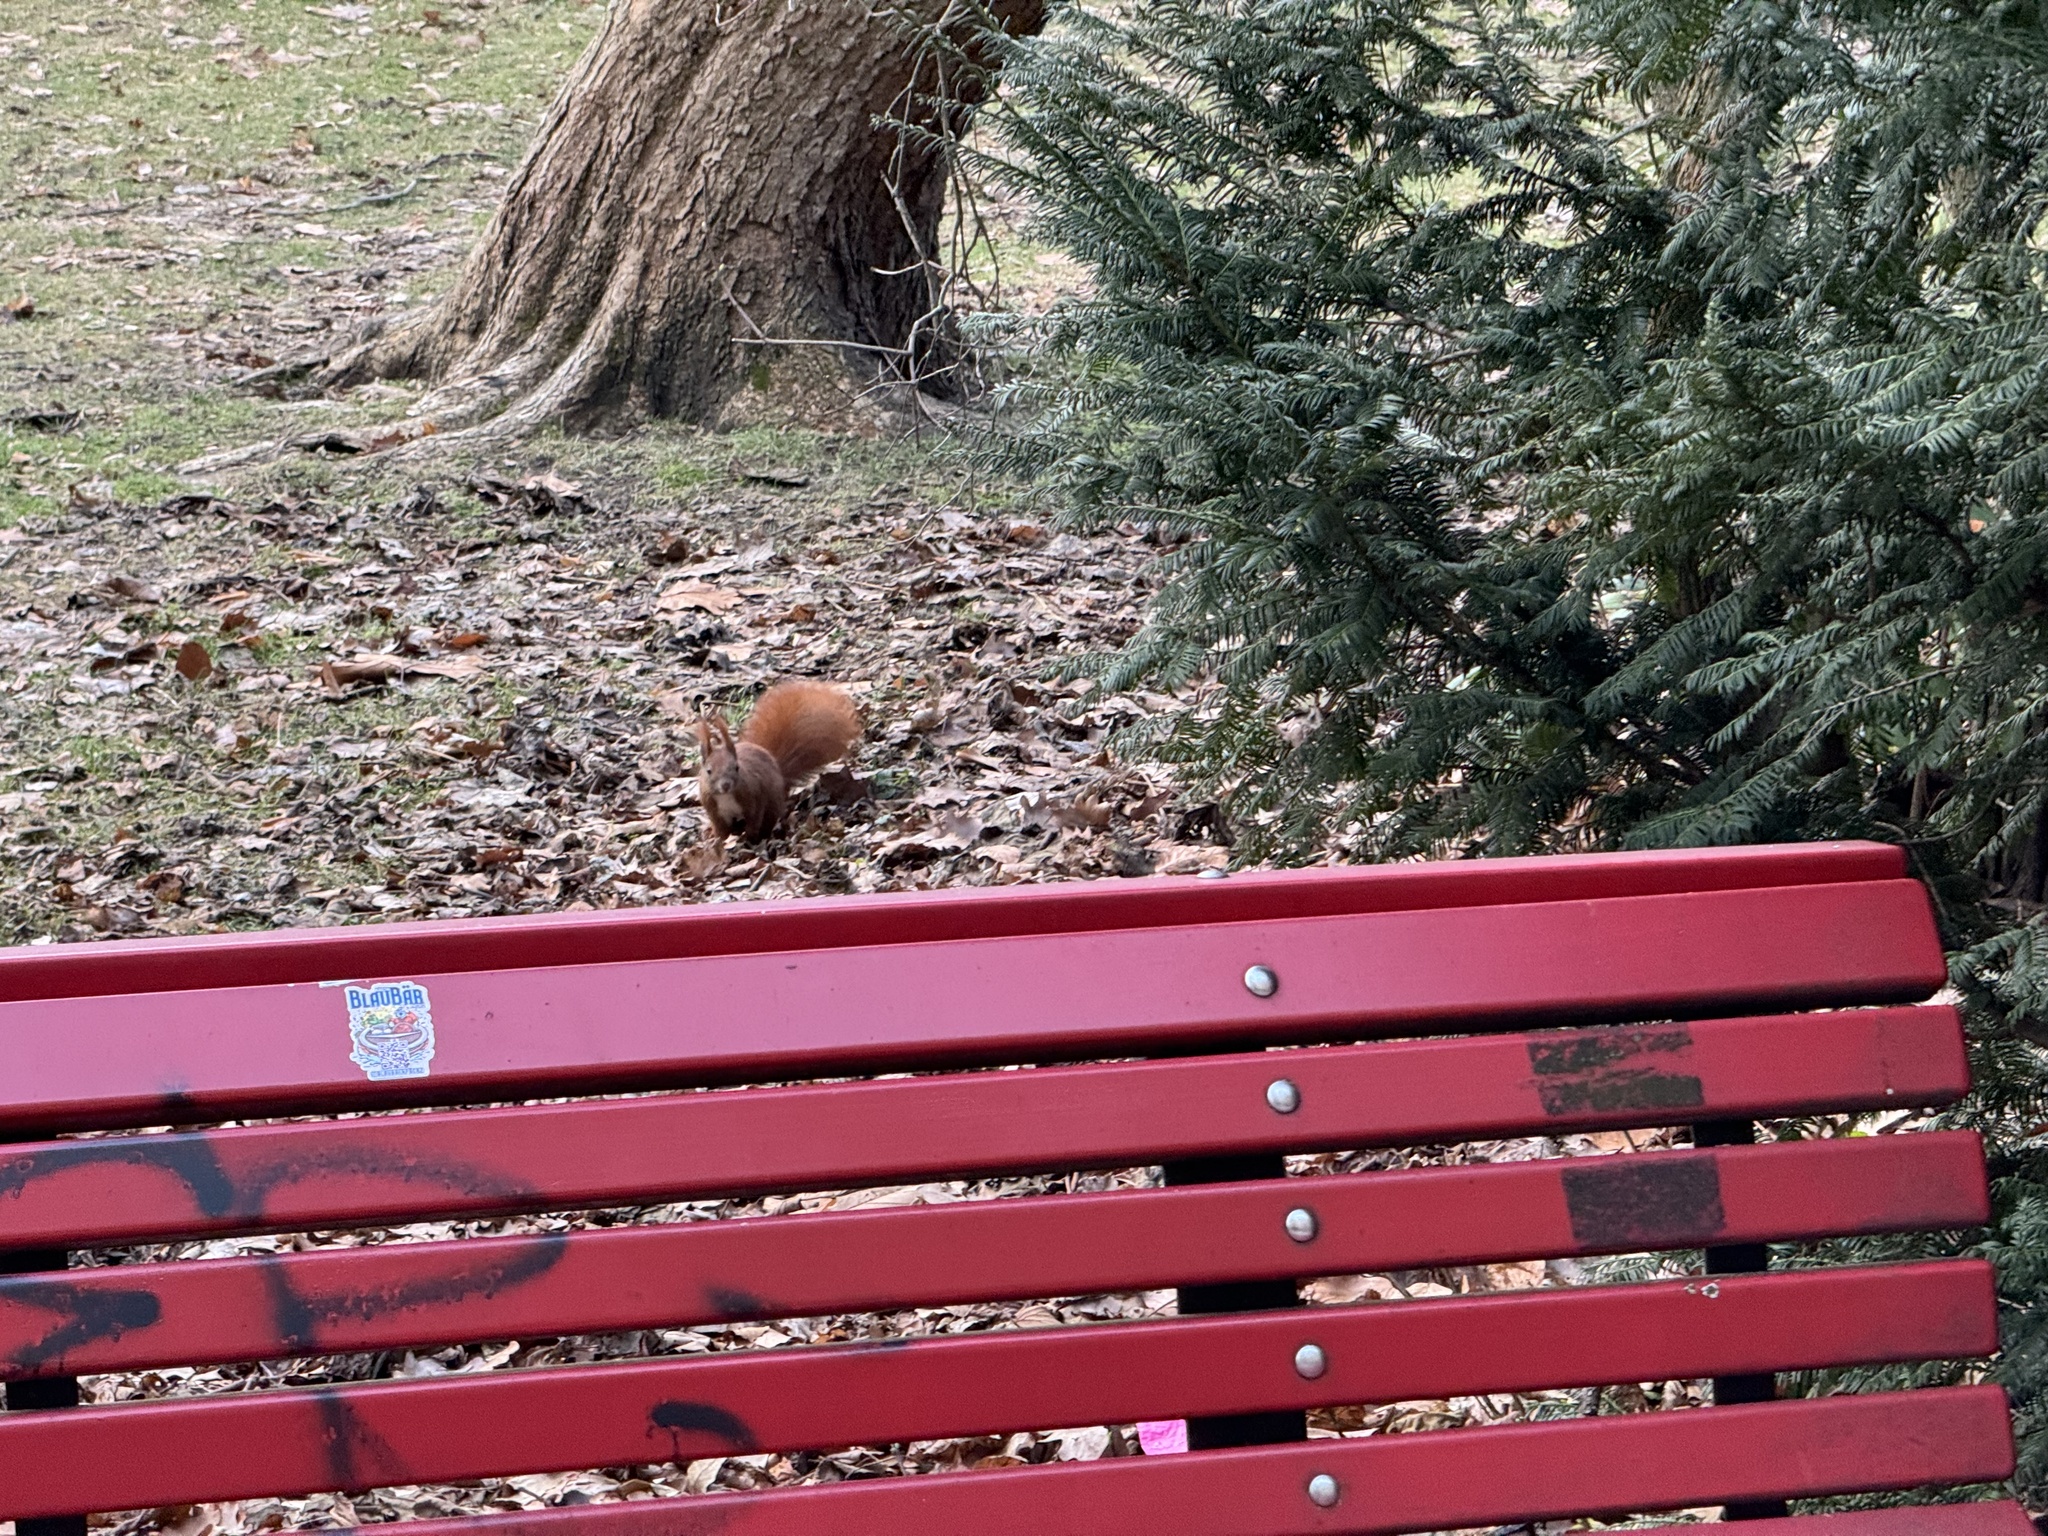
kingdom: Animalia
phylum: Chordata
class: Mammalia
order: Rodentia
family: Sciuridae
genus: Sciurus
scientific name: Sciurus vulgaris
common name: Eurasian red squirrel
